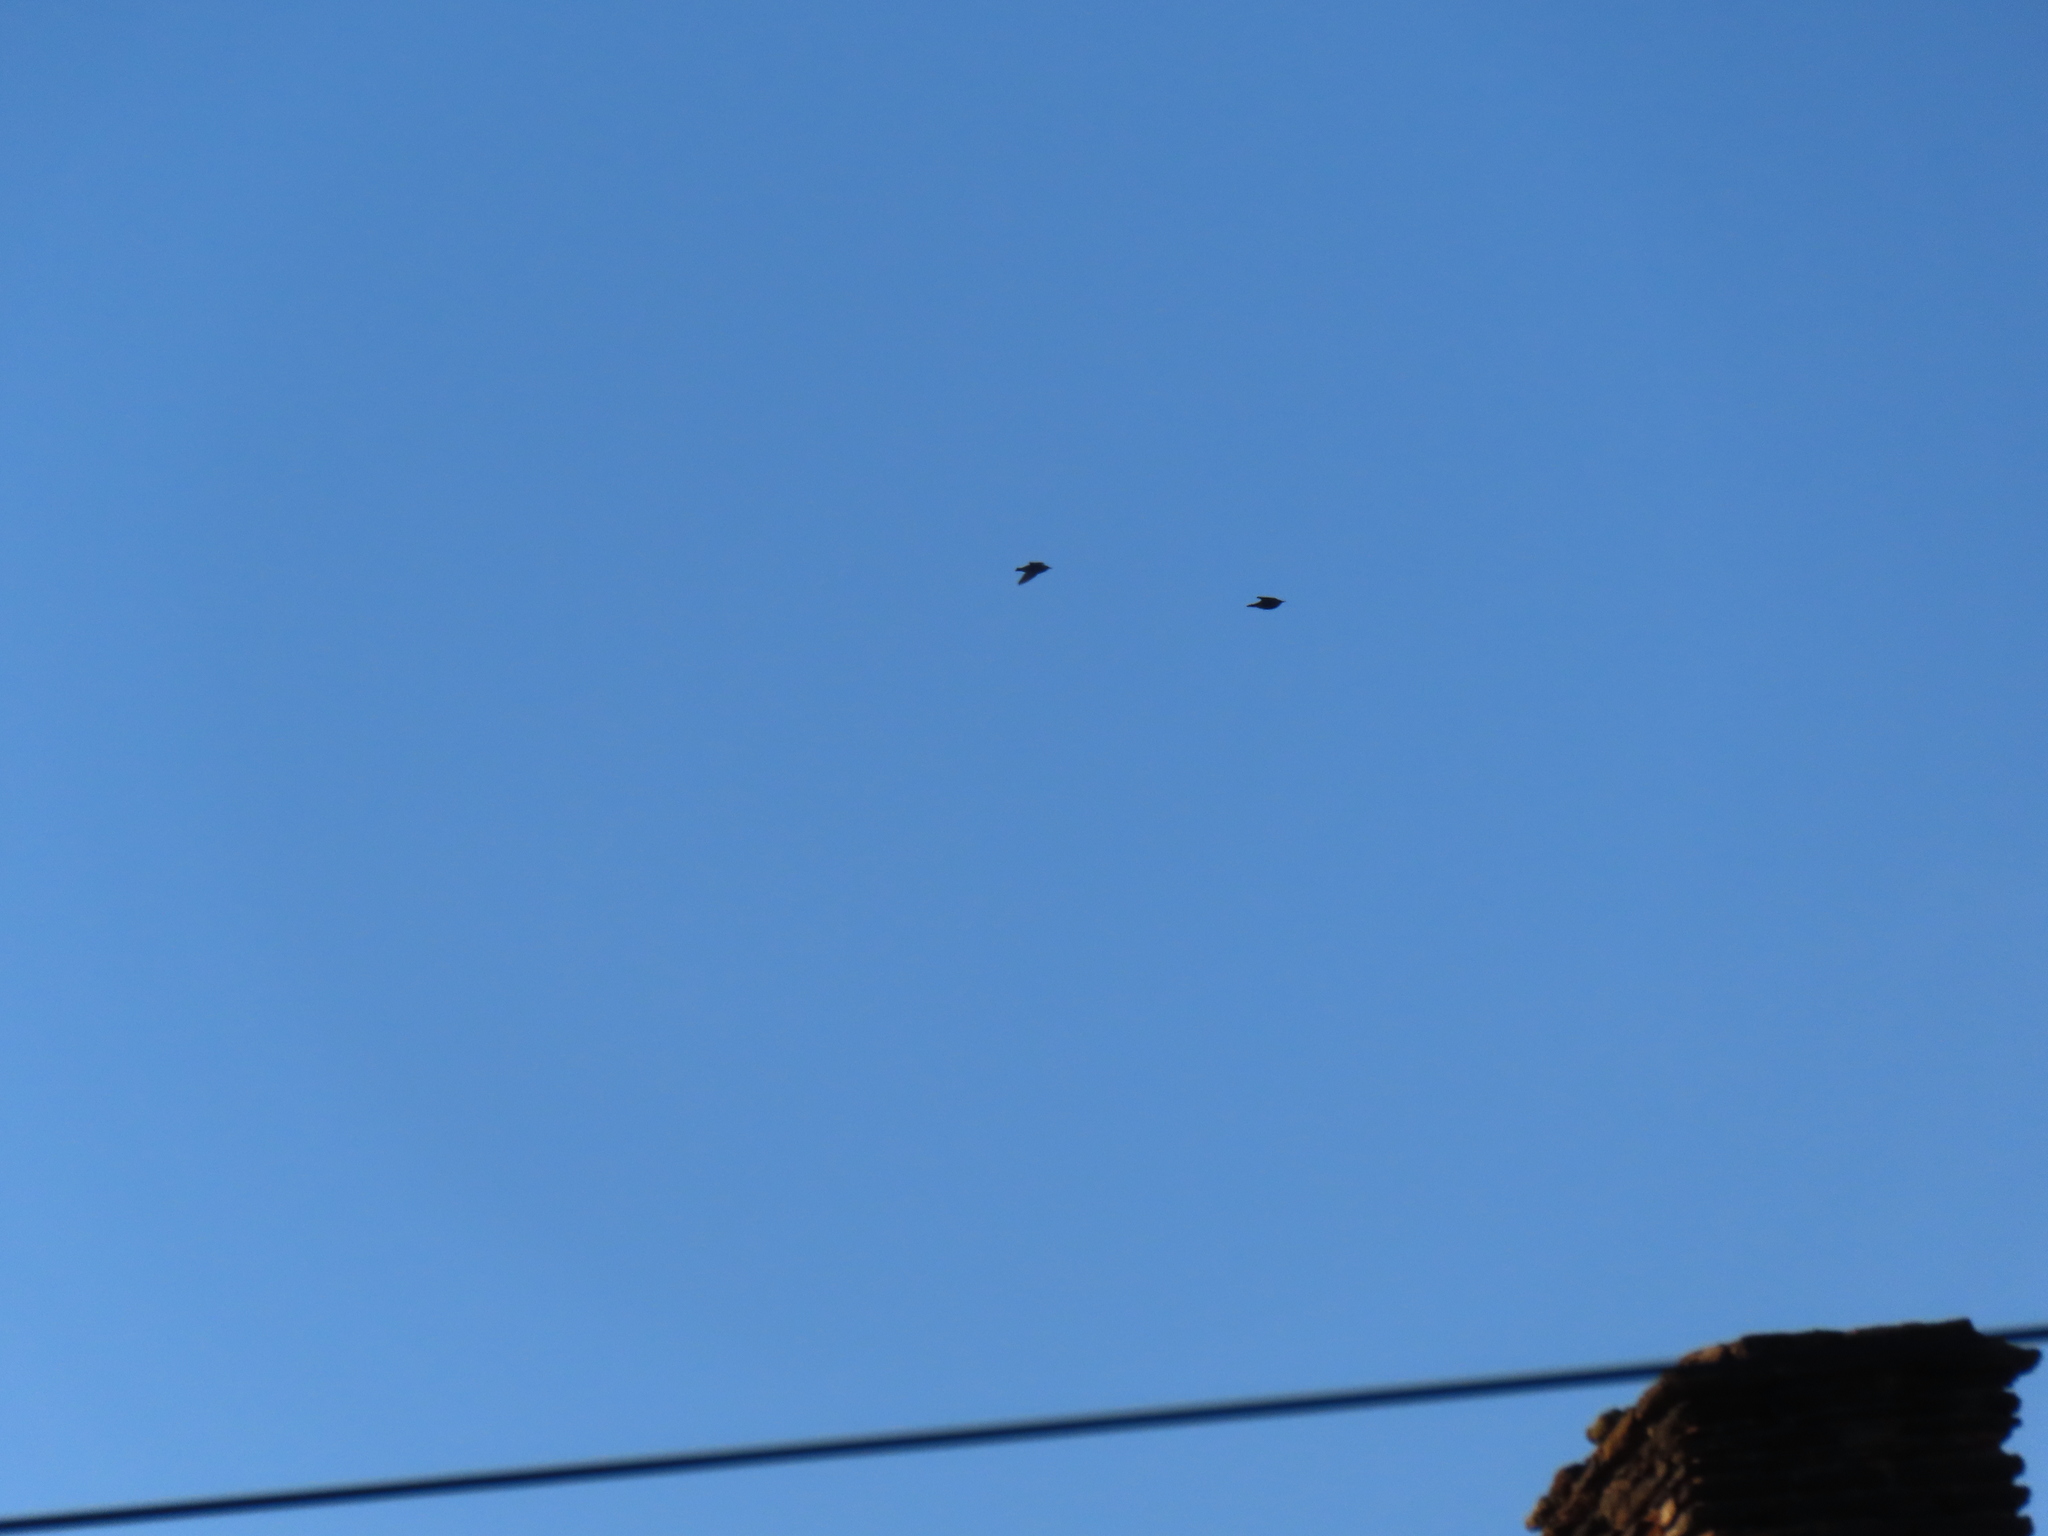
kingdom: Animalia
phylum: Chordata
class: Aves
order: Passeriformes
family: Sturnidae
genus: Sturnus
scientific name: Sturnus vulgaris
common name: Common starling
